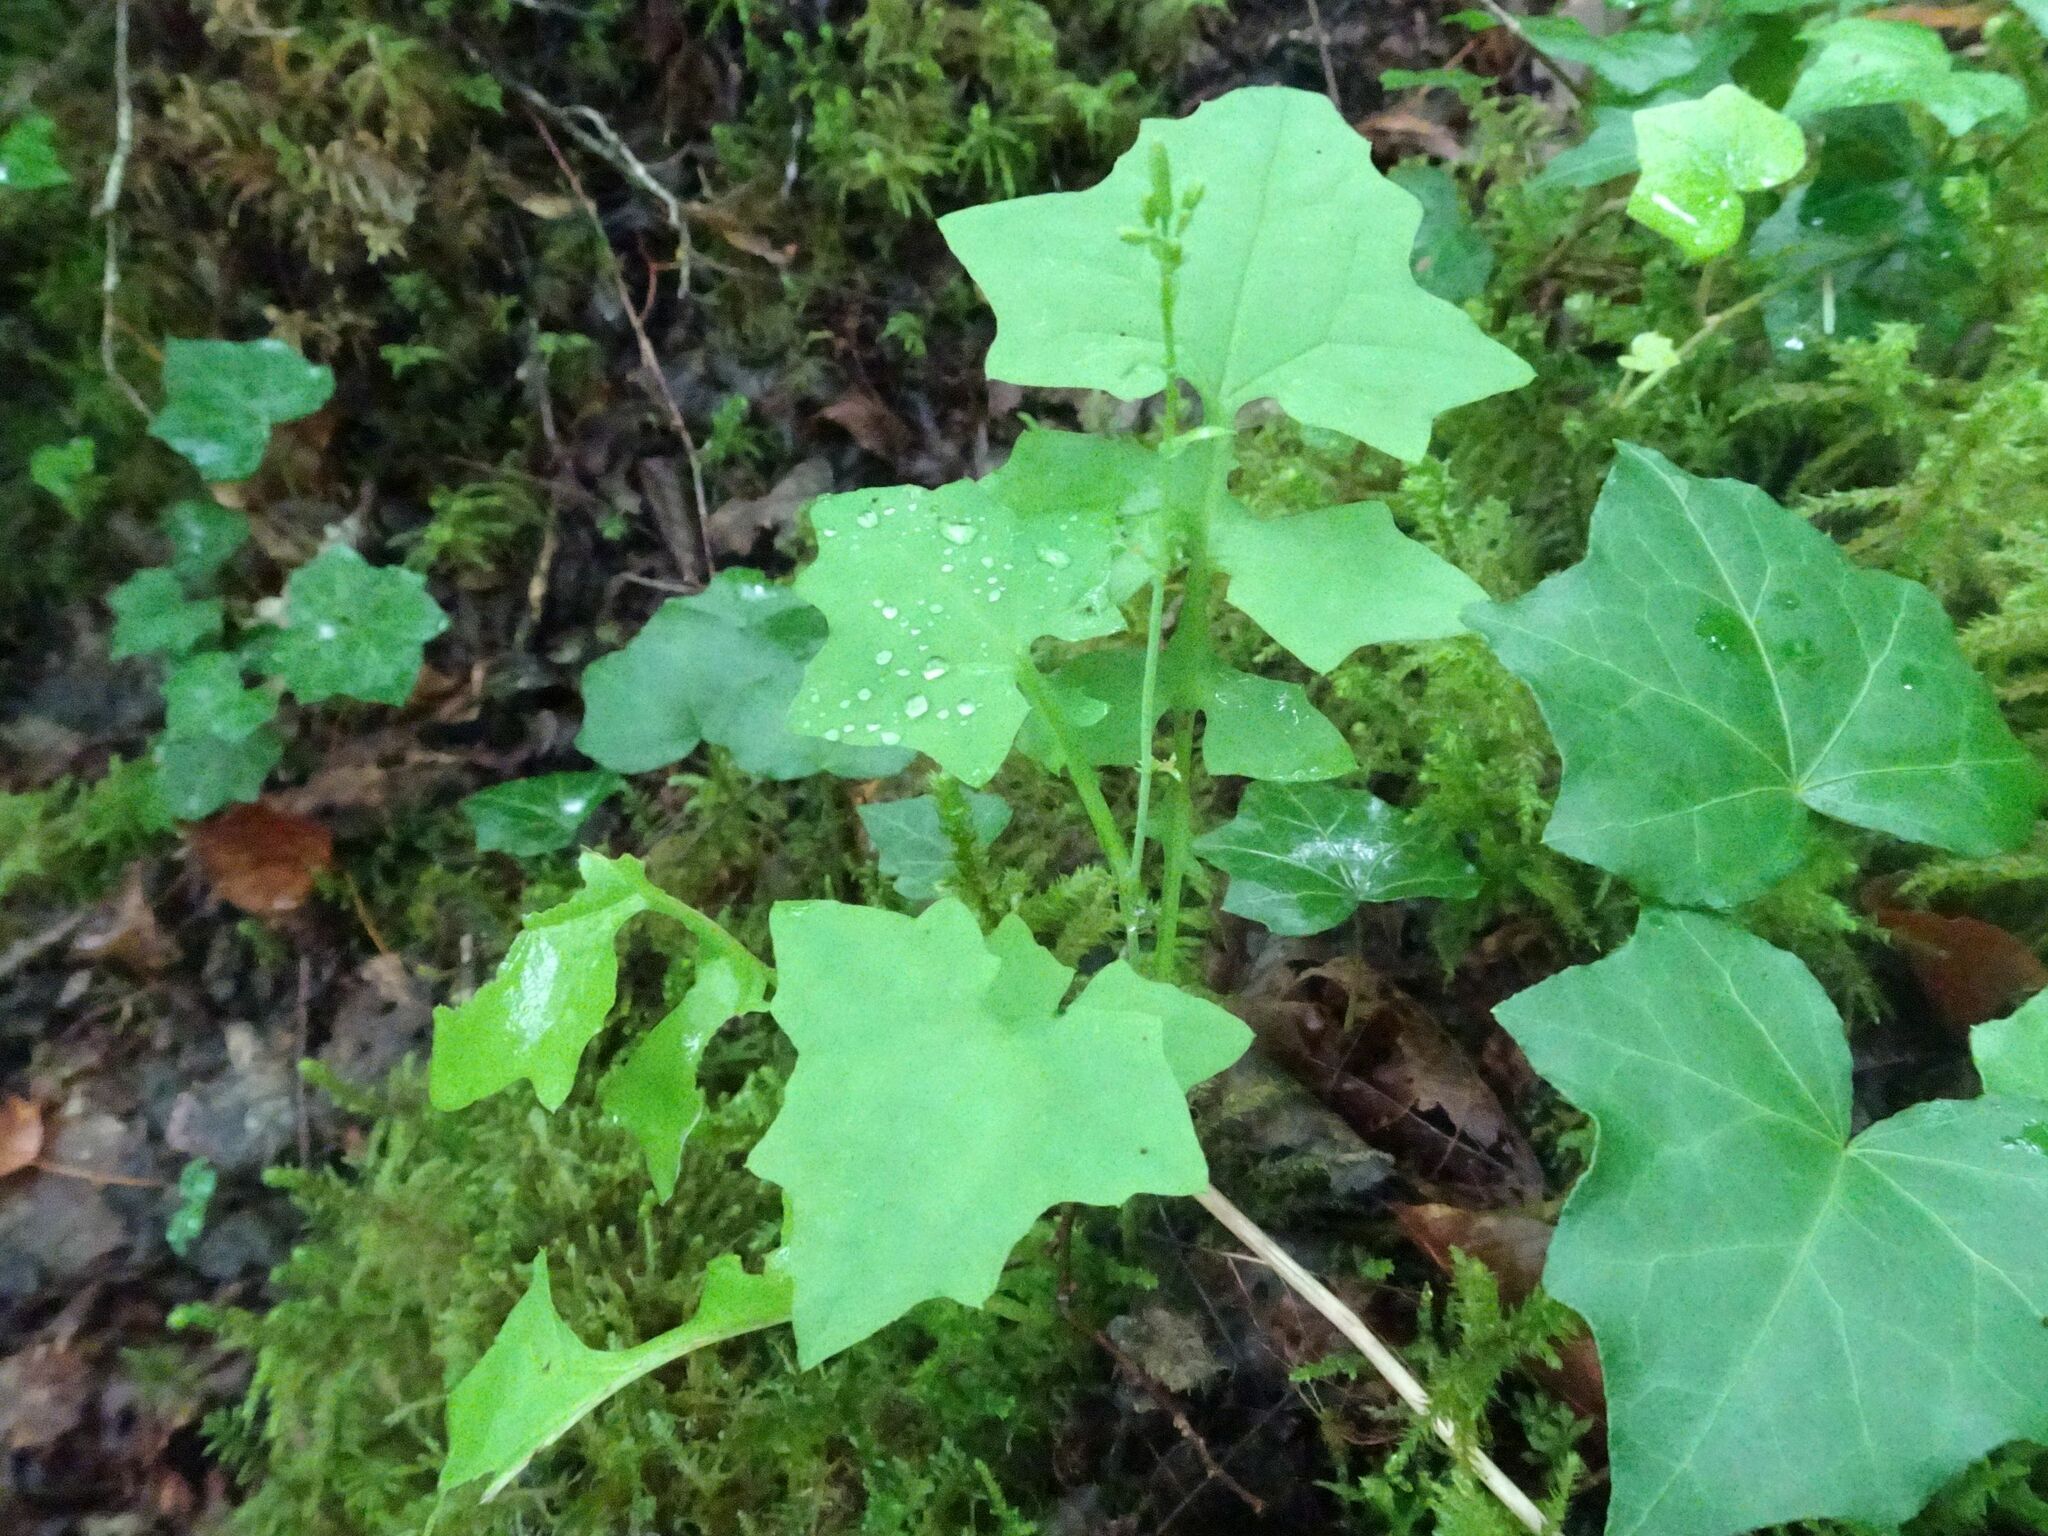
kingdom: Plantae
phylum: Tracheophyta
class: Magnoliopsida
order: Asterales
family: Asteraceae
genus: Mycelis
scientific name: Mycelis muralis
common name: Wall lettuce
